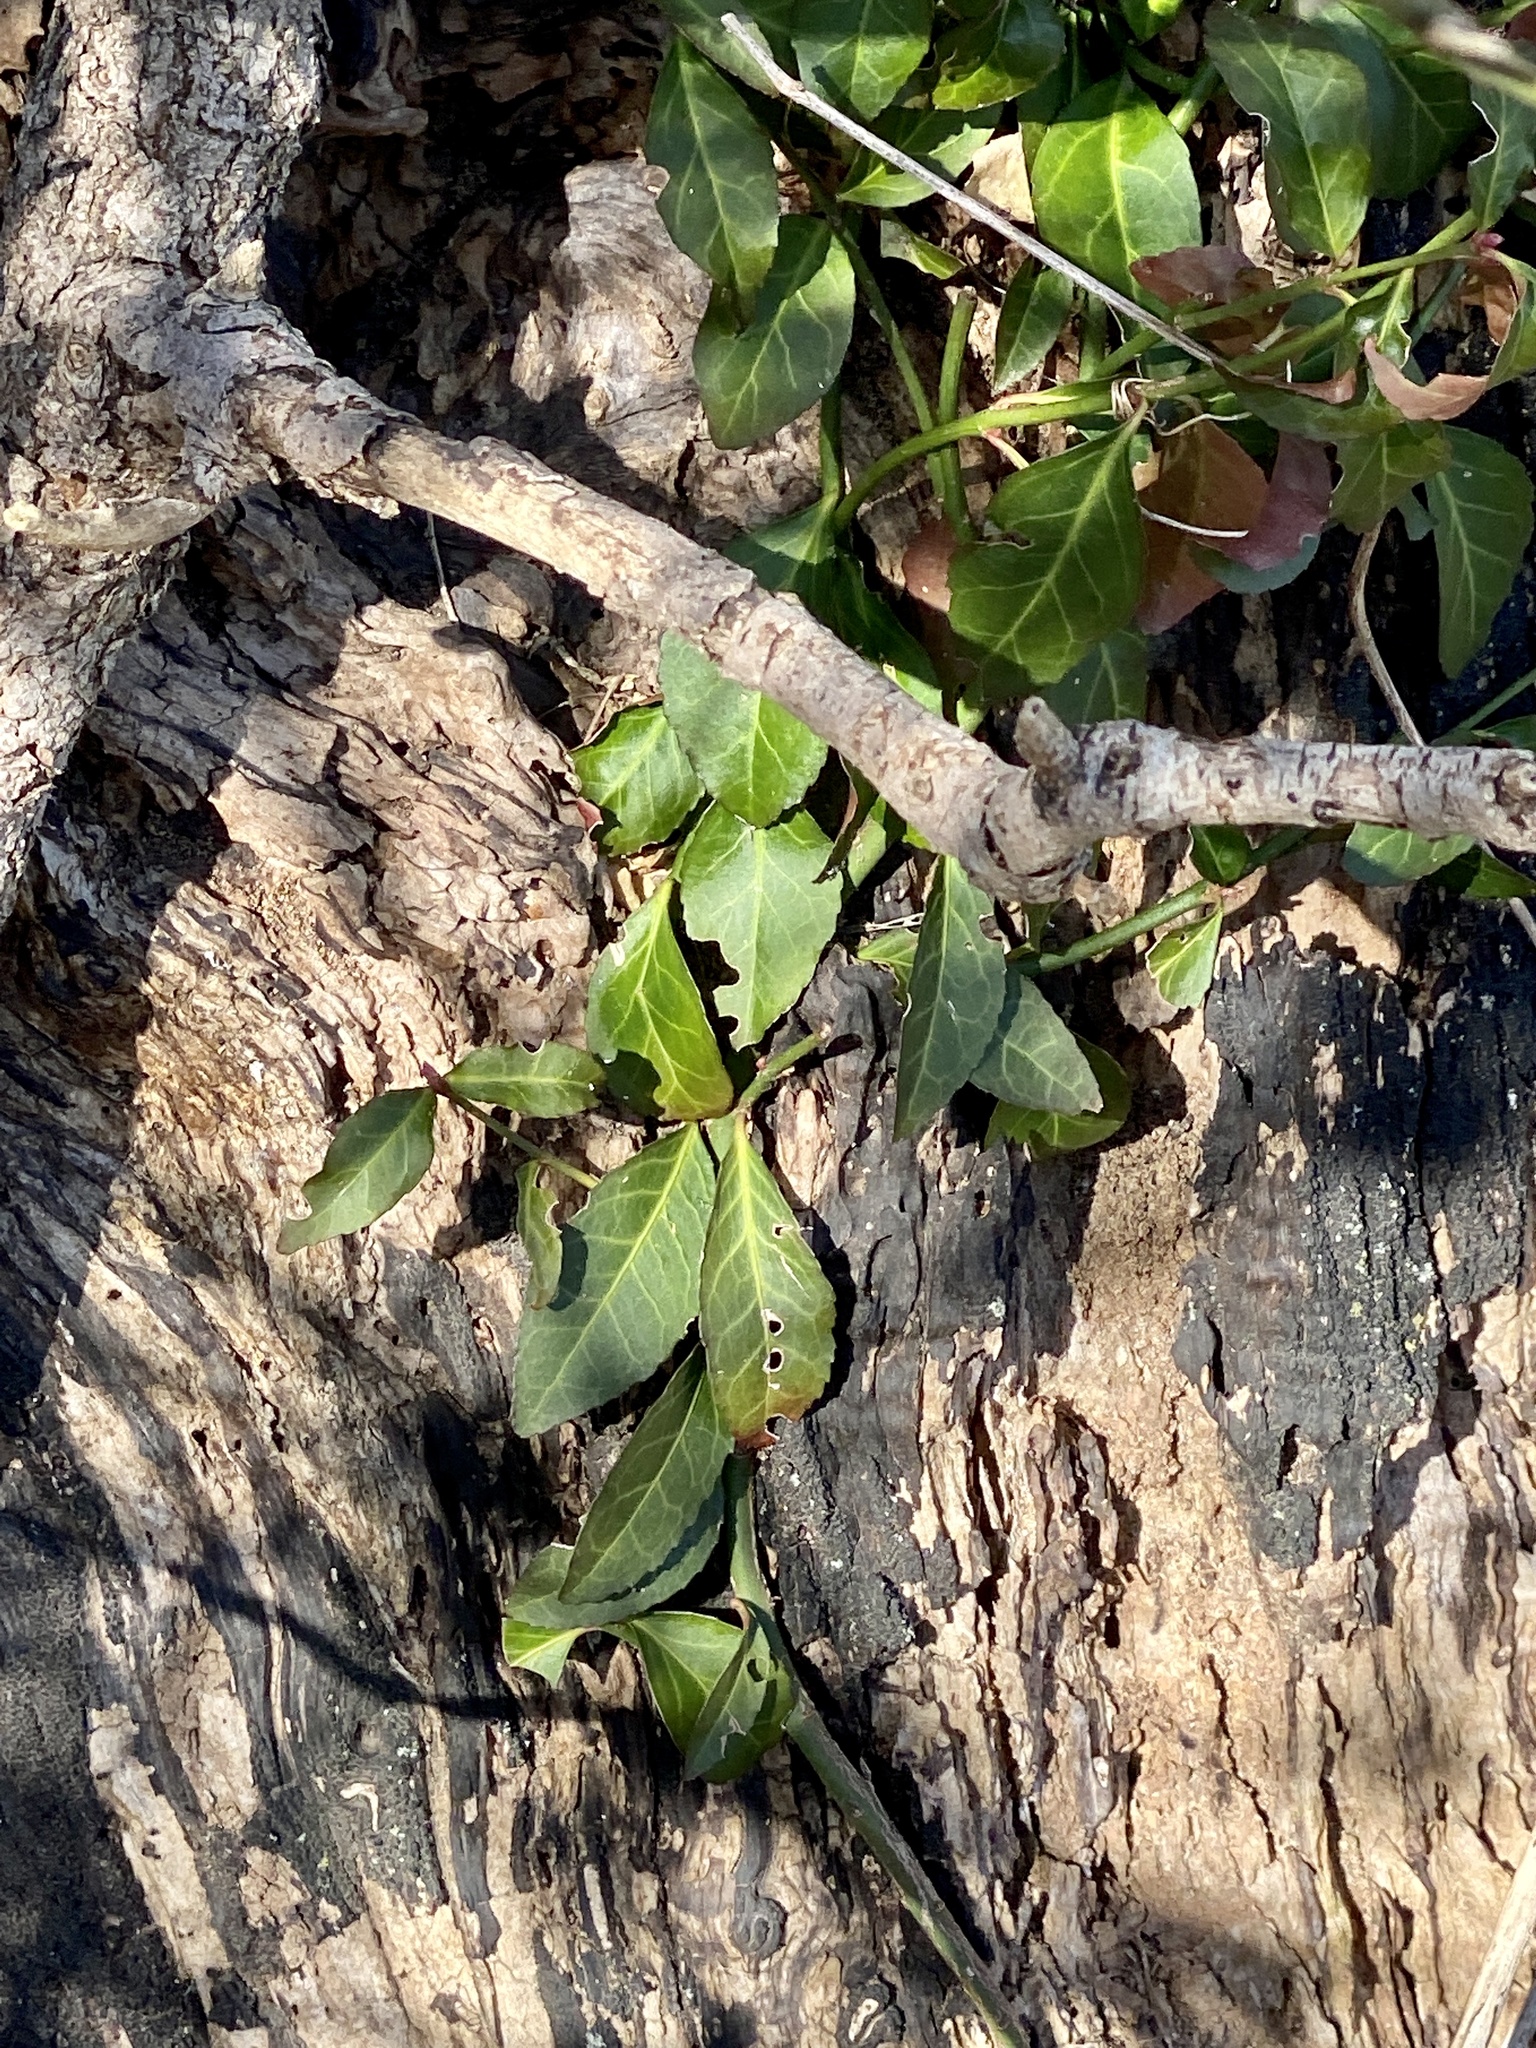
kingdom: Plantae
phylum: Tracheophyta
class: Magnoliopsida
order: Celastrales
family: Celastraceae
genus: Euonymus
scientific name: Euonymus fortunei
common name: Climbing euonymus
